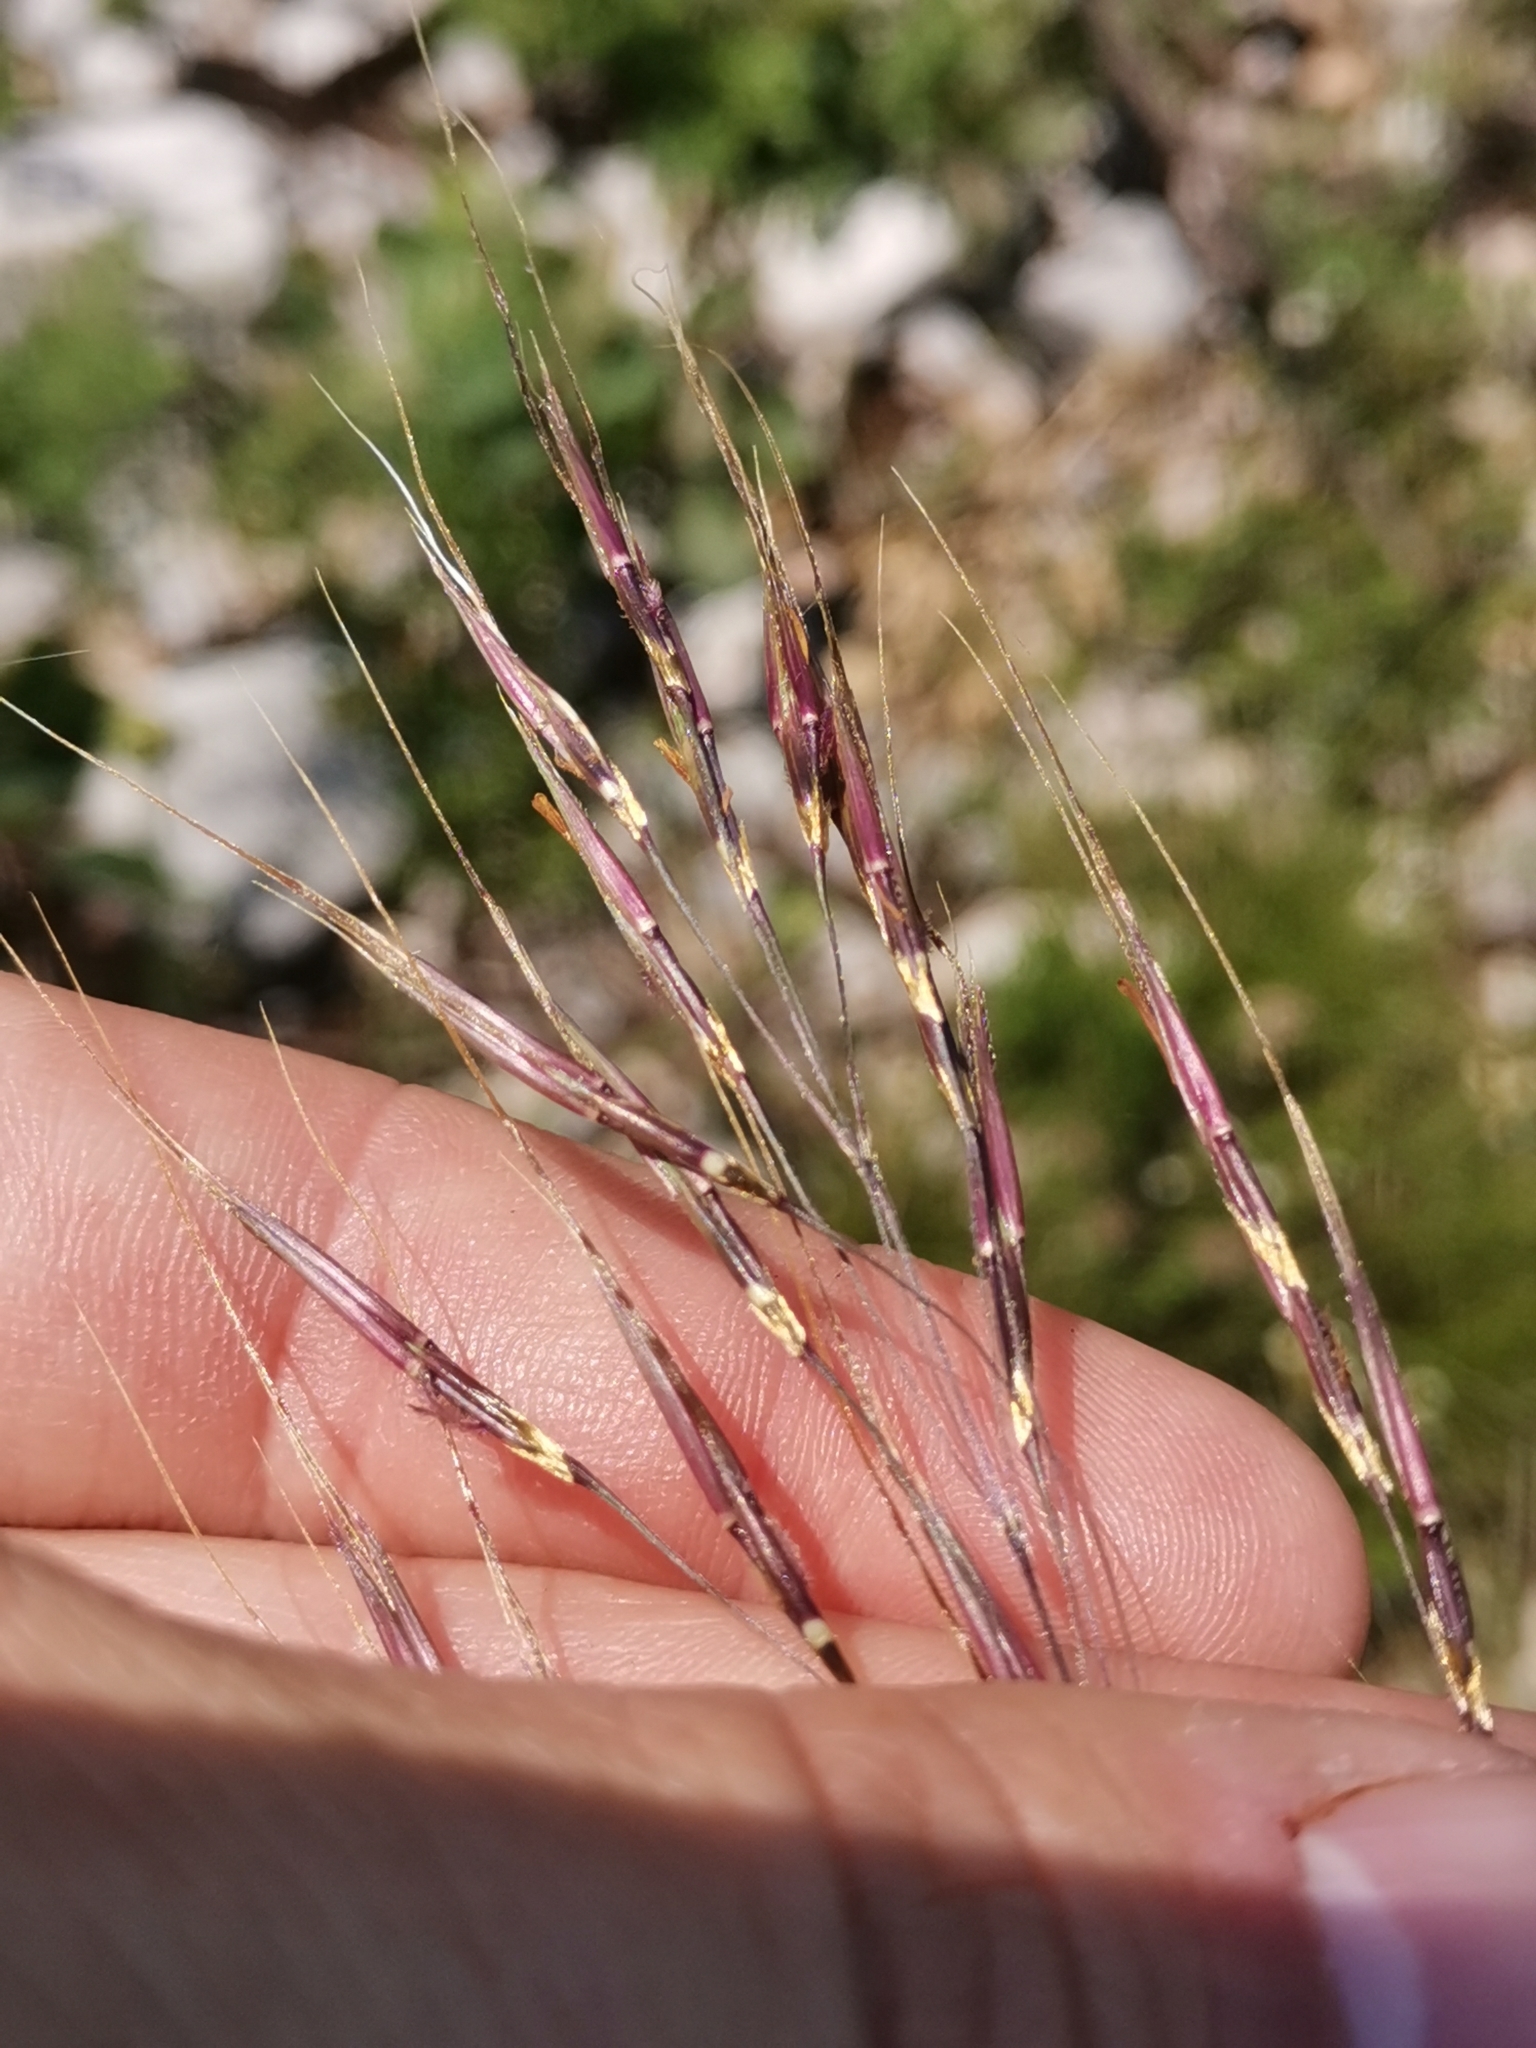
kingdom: Plantae
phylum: Tracheophyta
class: Liliopsida
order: Poales
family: Poaceae
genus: Chrysopogon
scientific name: Chrysopogon gryllus
